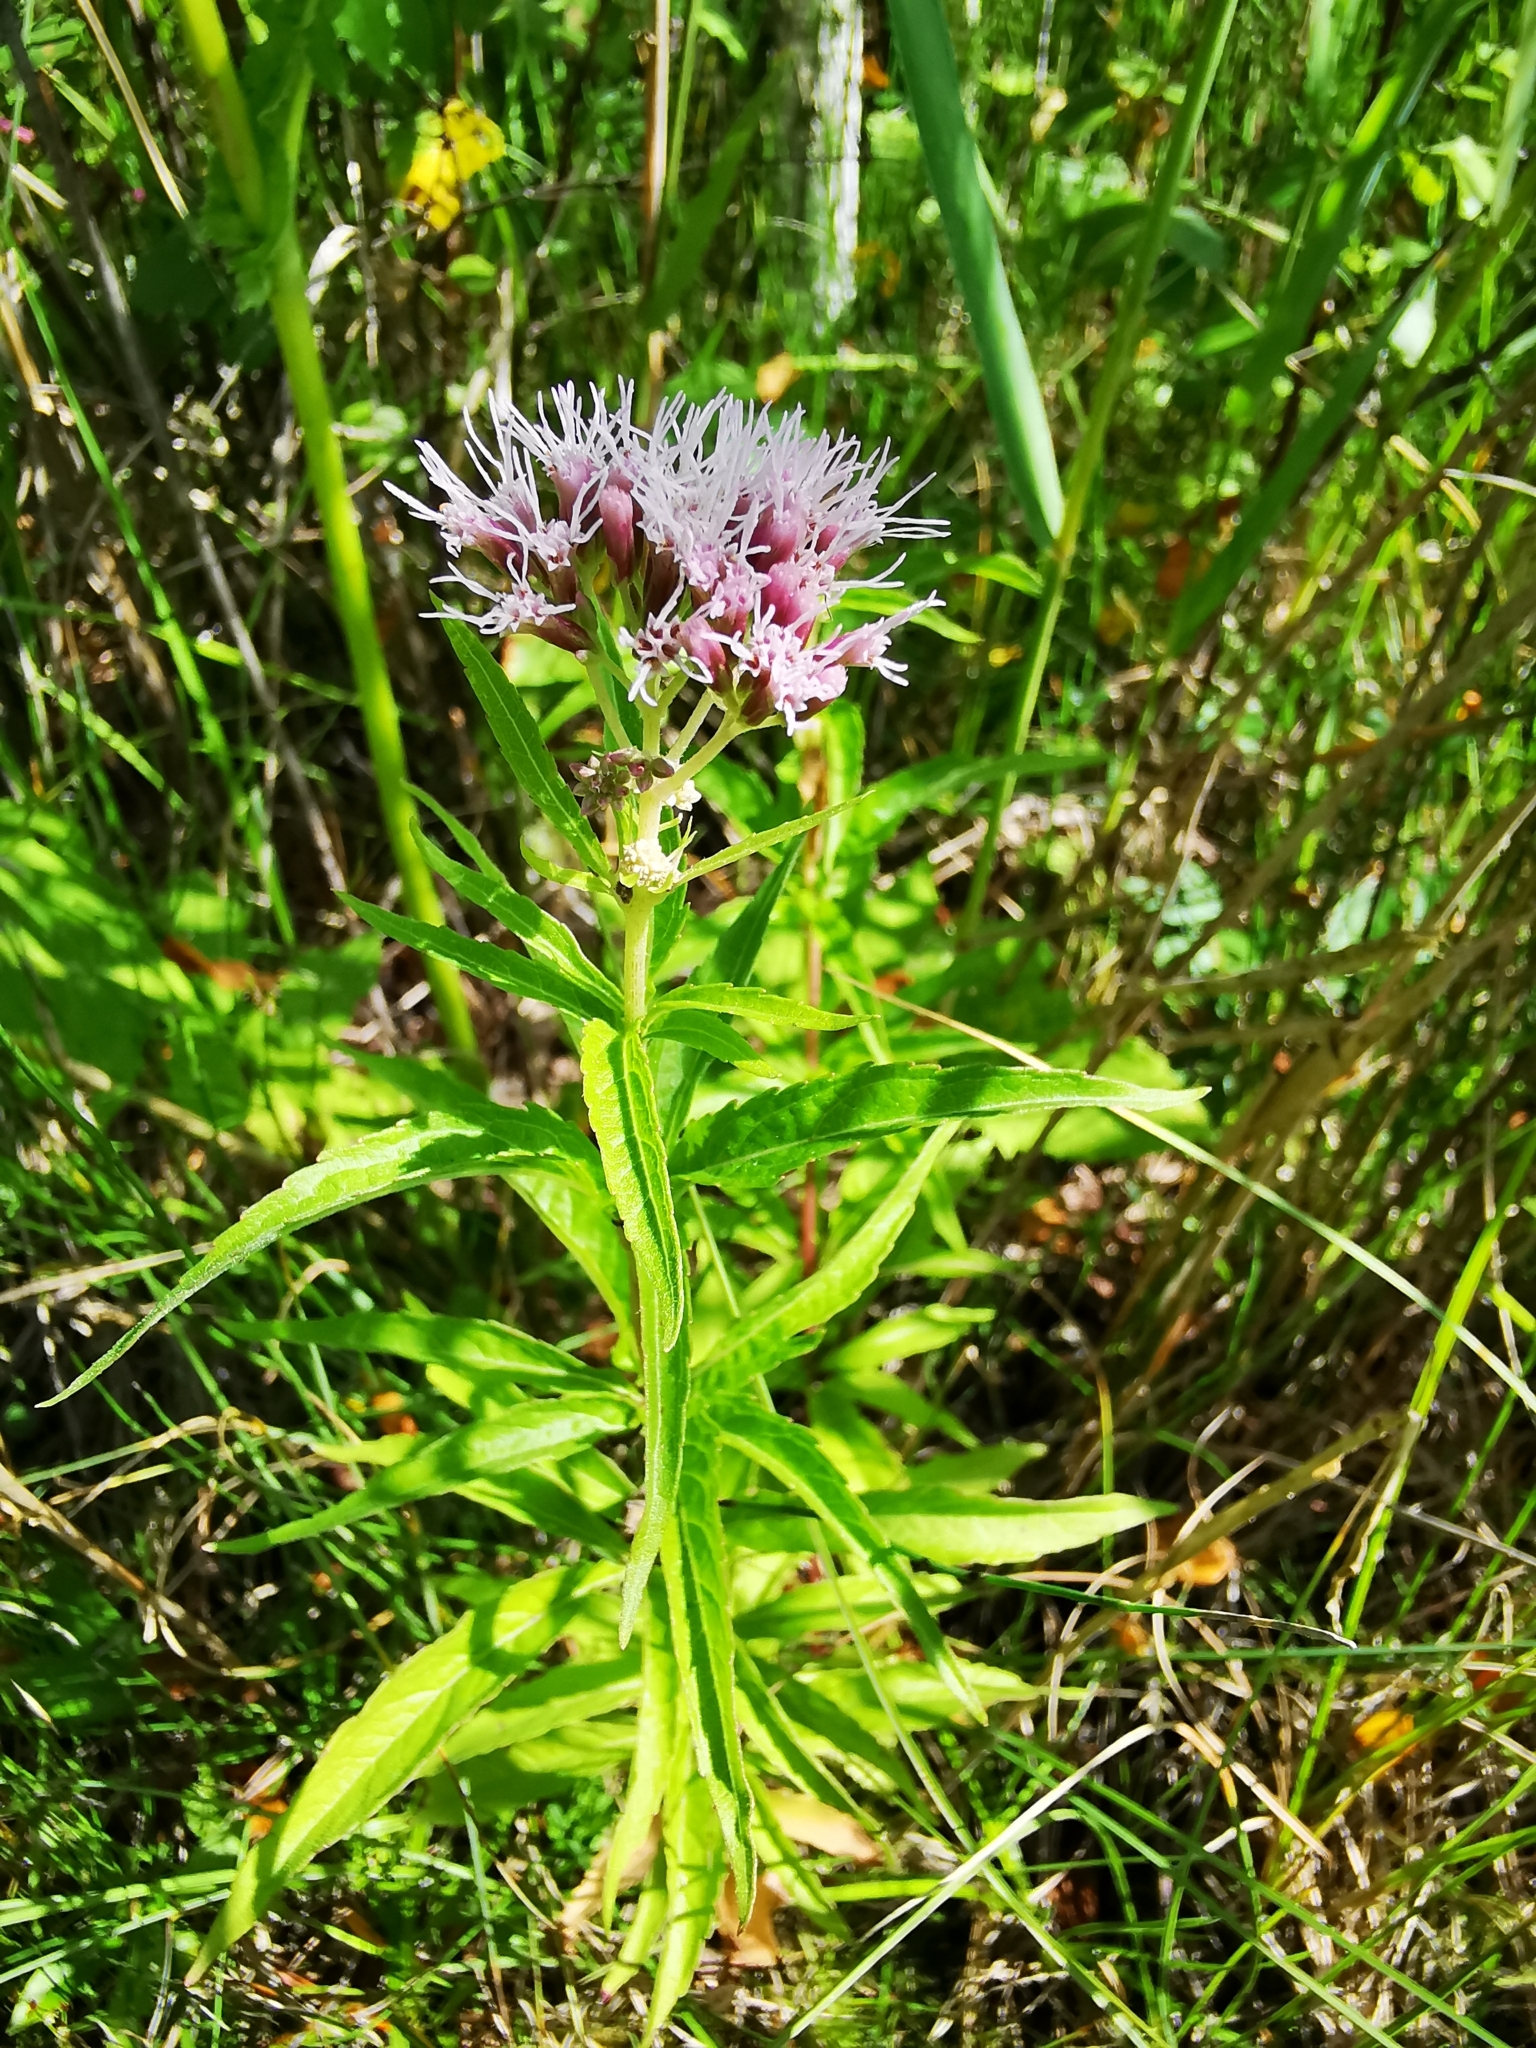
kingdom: Plantae
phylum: Tracheophyta
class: Magnoliopsida
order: Asterales
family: Asteraceae
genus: Eupatorium
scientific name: Eupatorium cannabinum
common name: Hemp-agrimony
